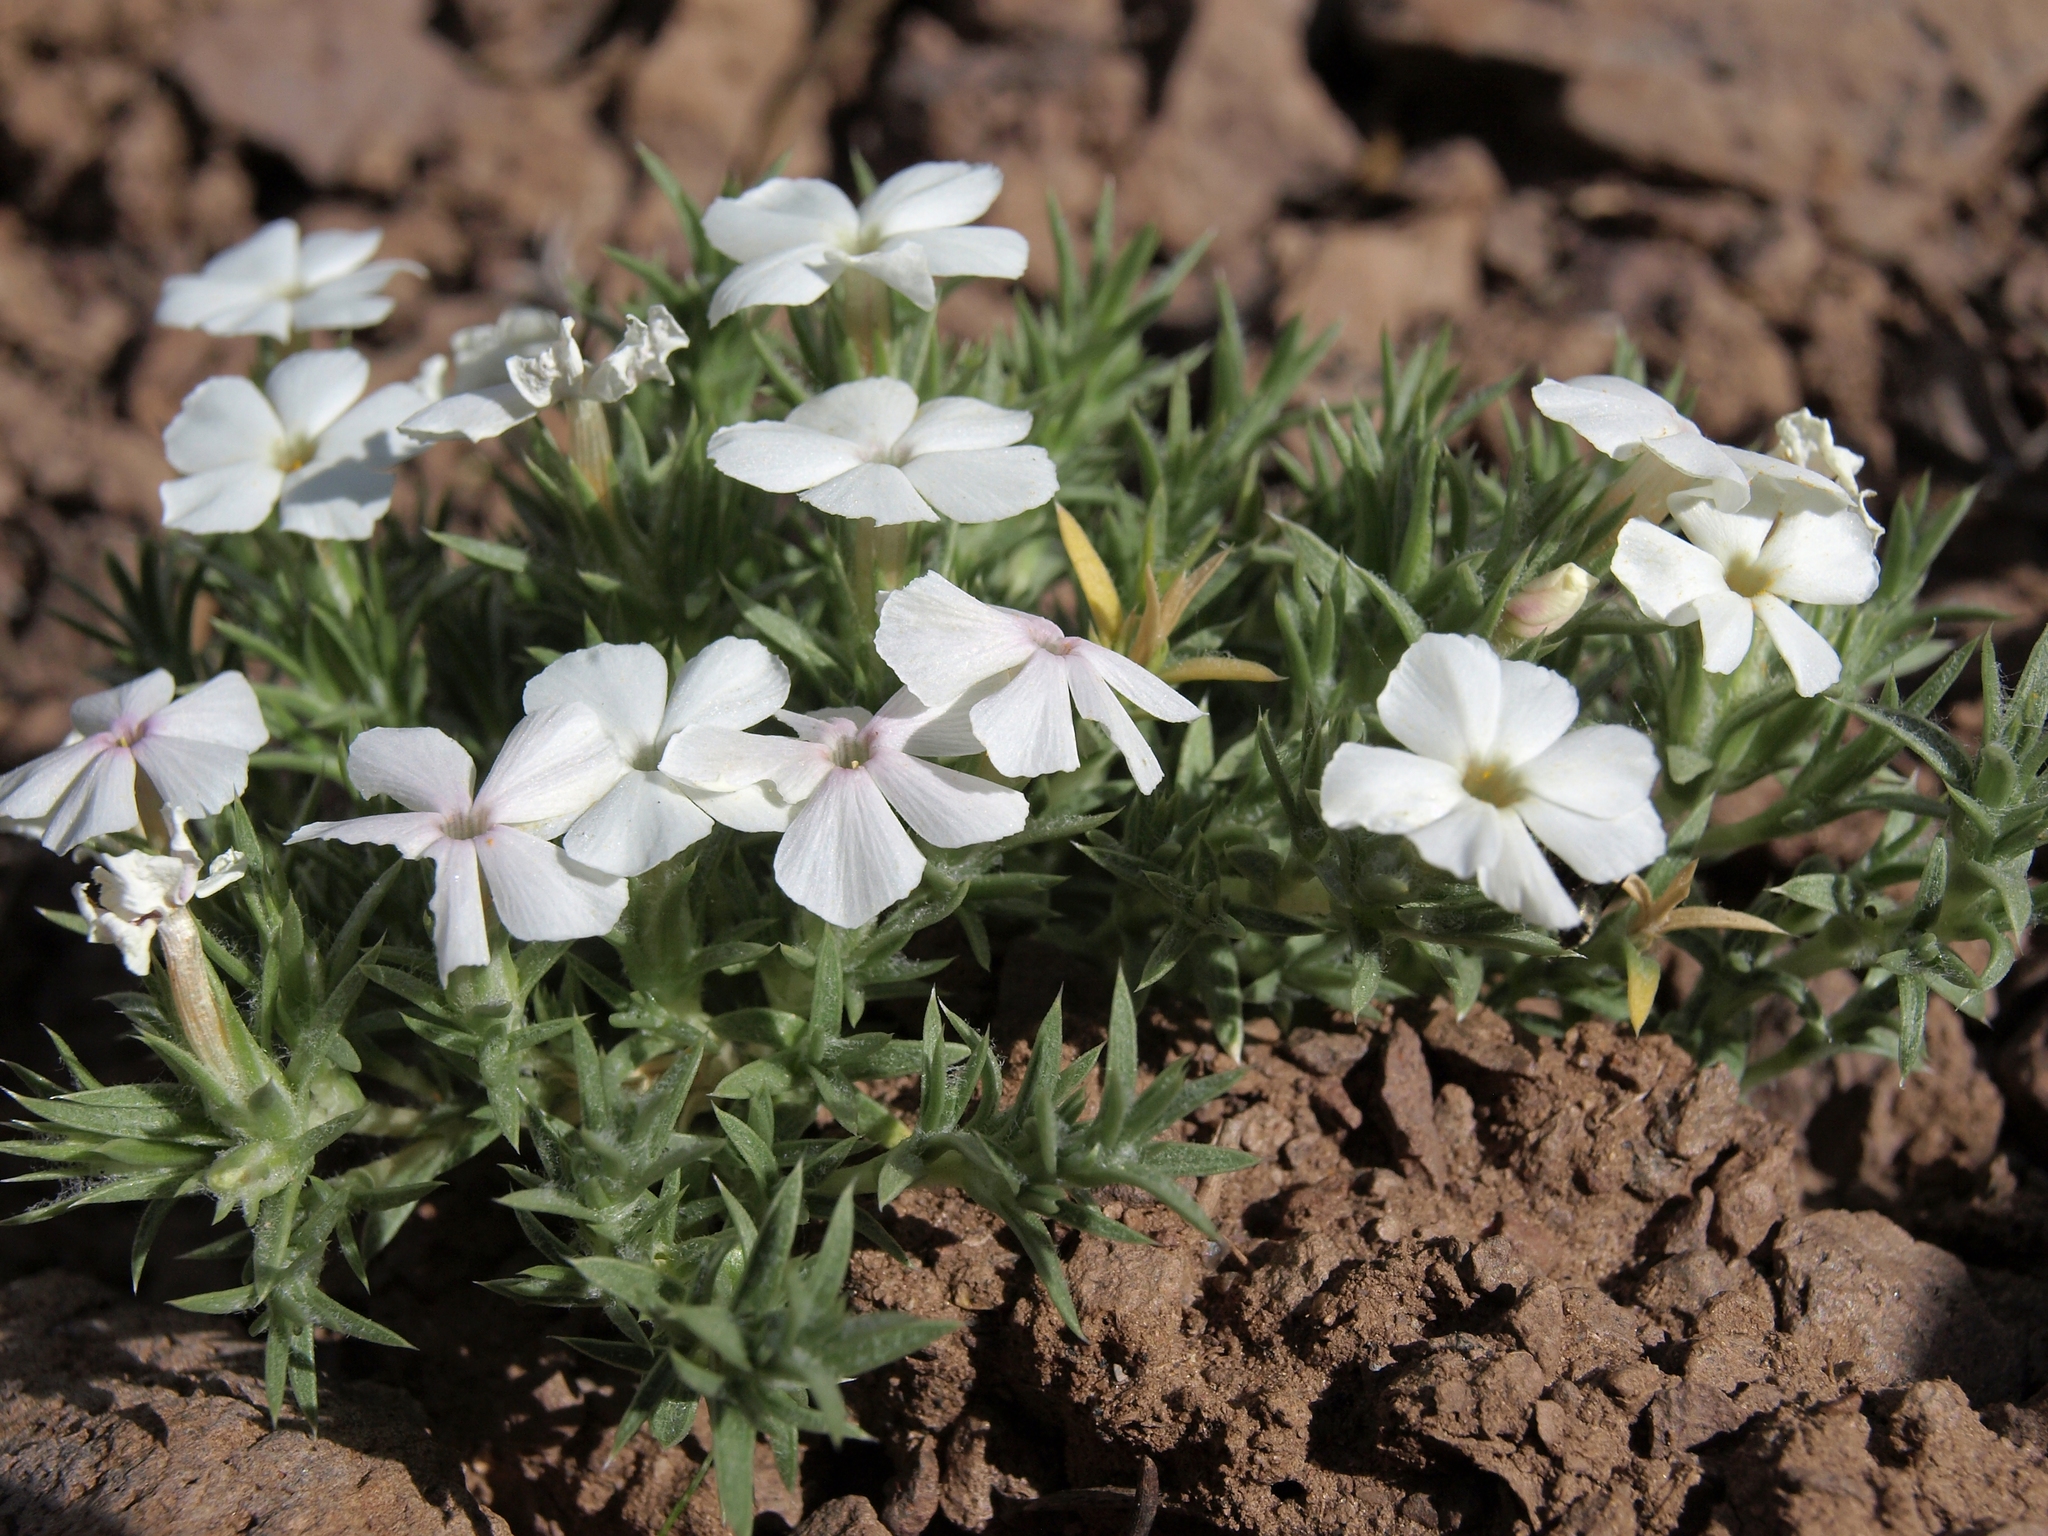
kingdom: Plantae
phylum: Tracheophyta
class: Magnoliopsida
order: Ericales
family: Polemoniaceae
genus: Phlox
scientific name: Phlox hoodii
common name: Moss phlox
